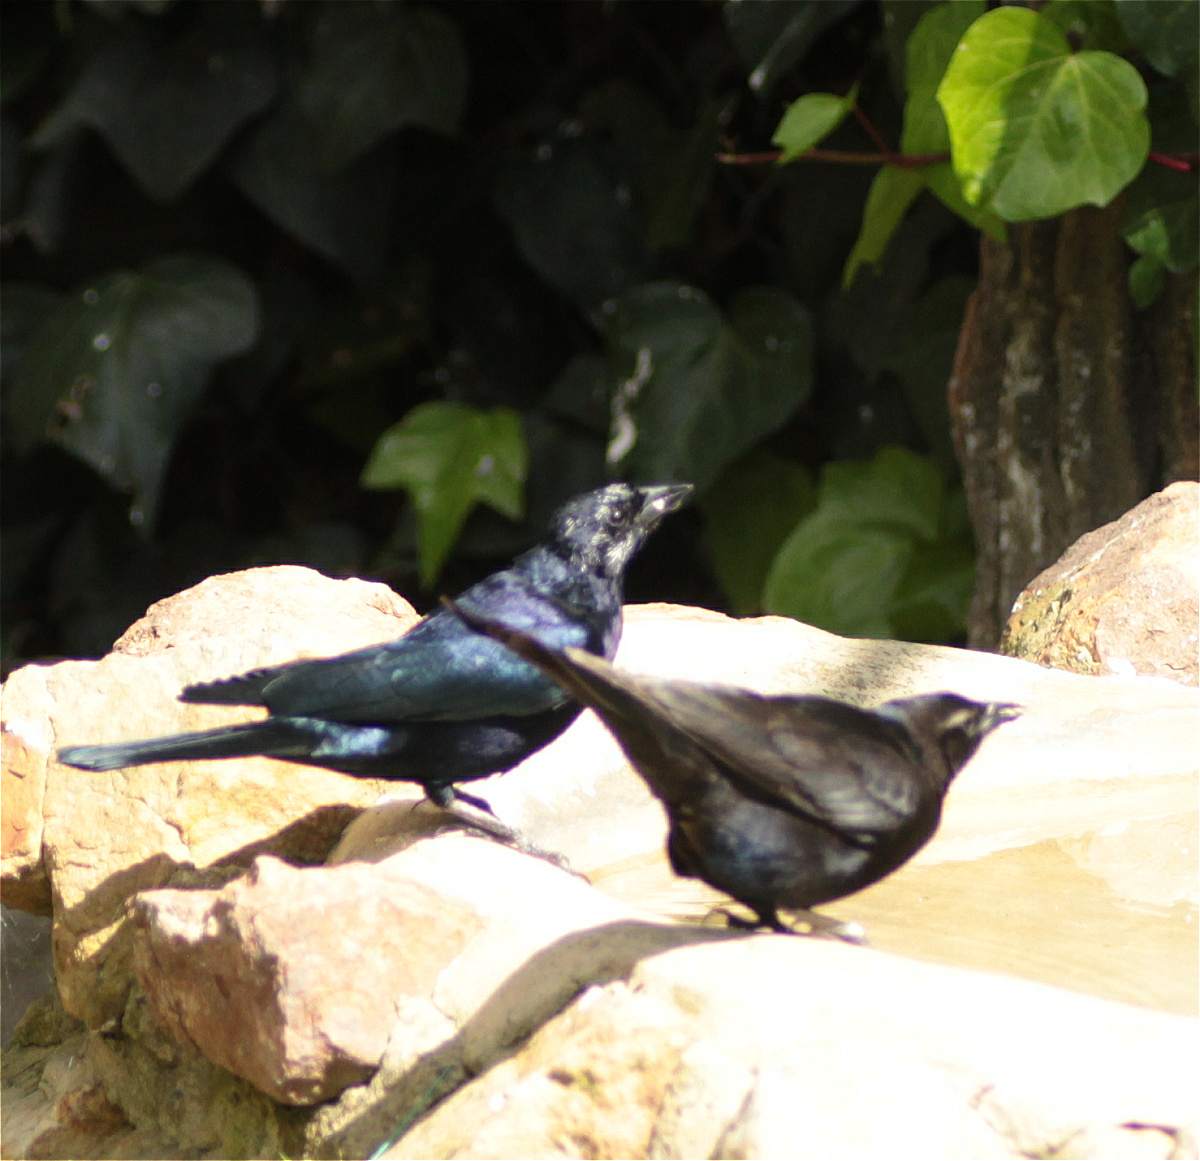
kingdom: Animalia
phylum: Chordata
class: Aves
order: Passeriformes
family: Icteridae
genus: Molothrus
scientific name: Molothrus bonariensis
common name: Shiny cowbird
